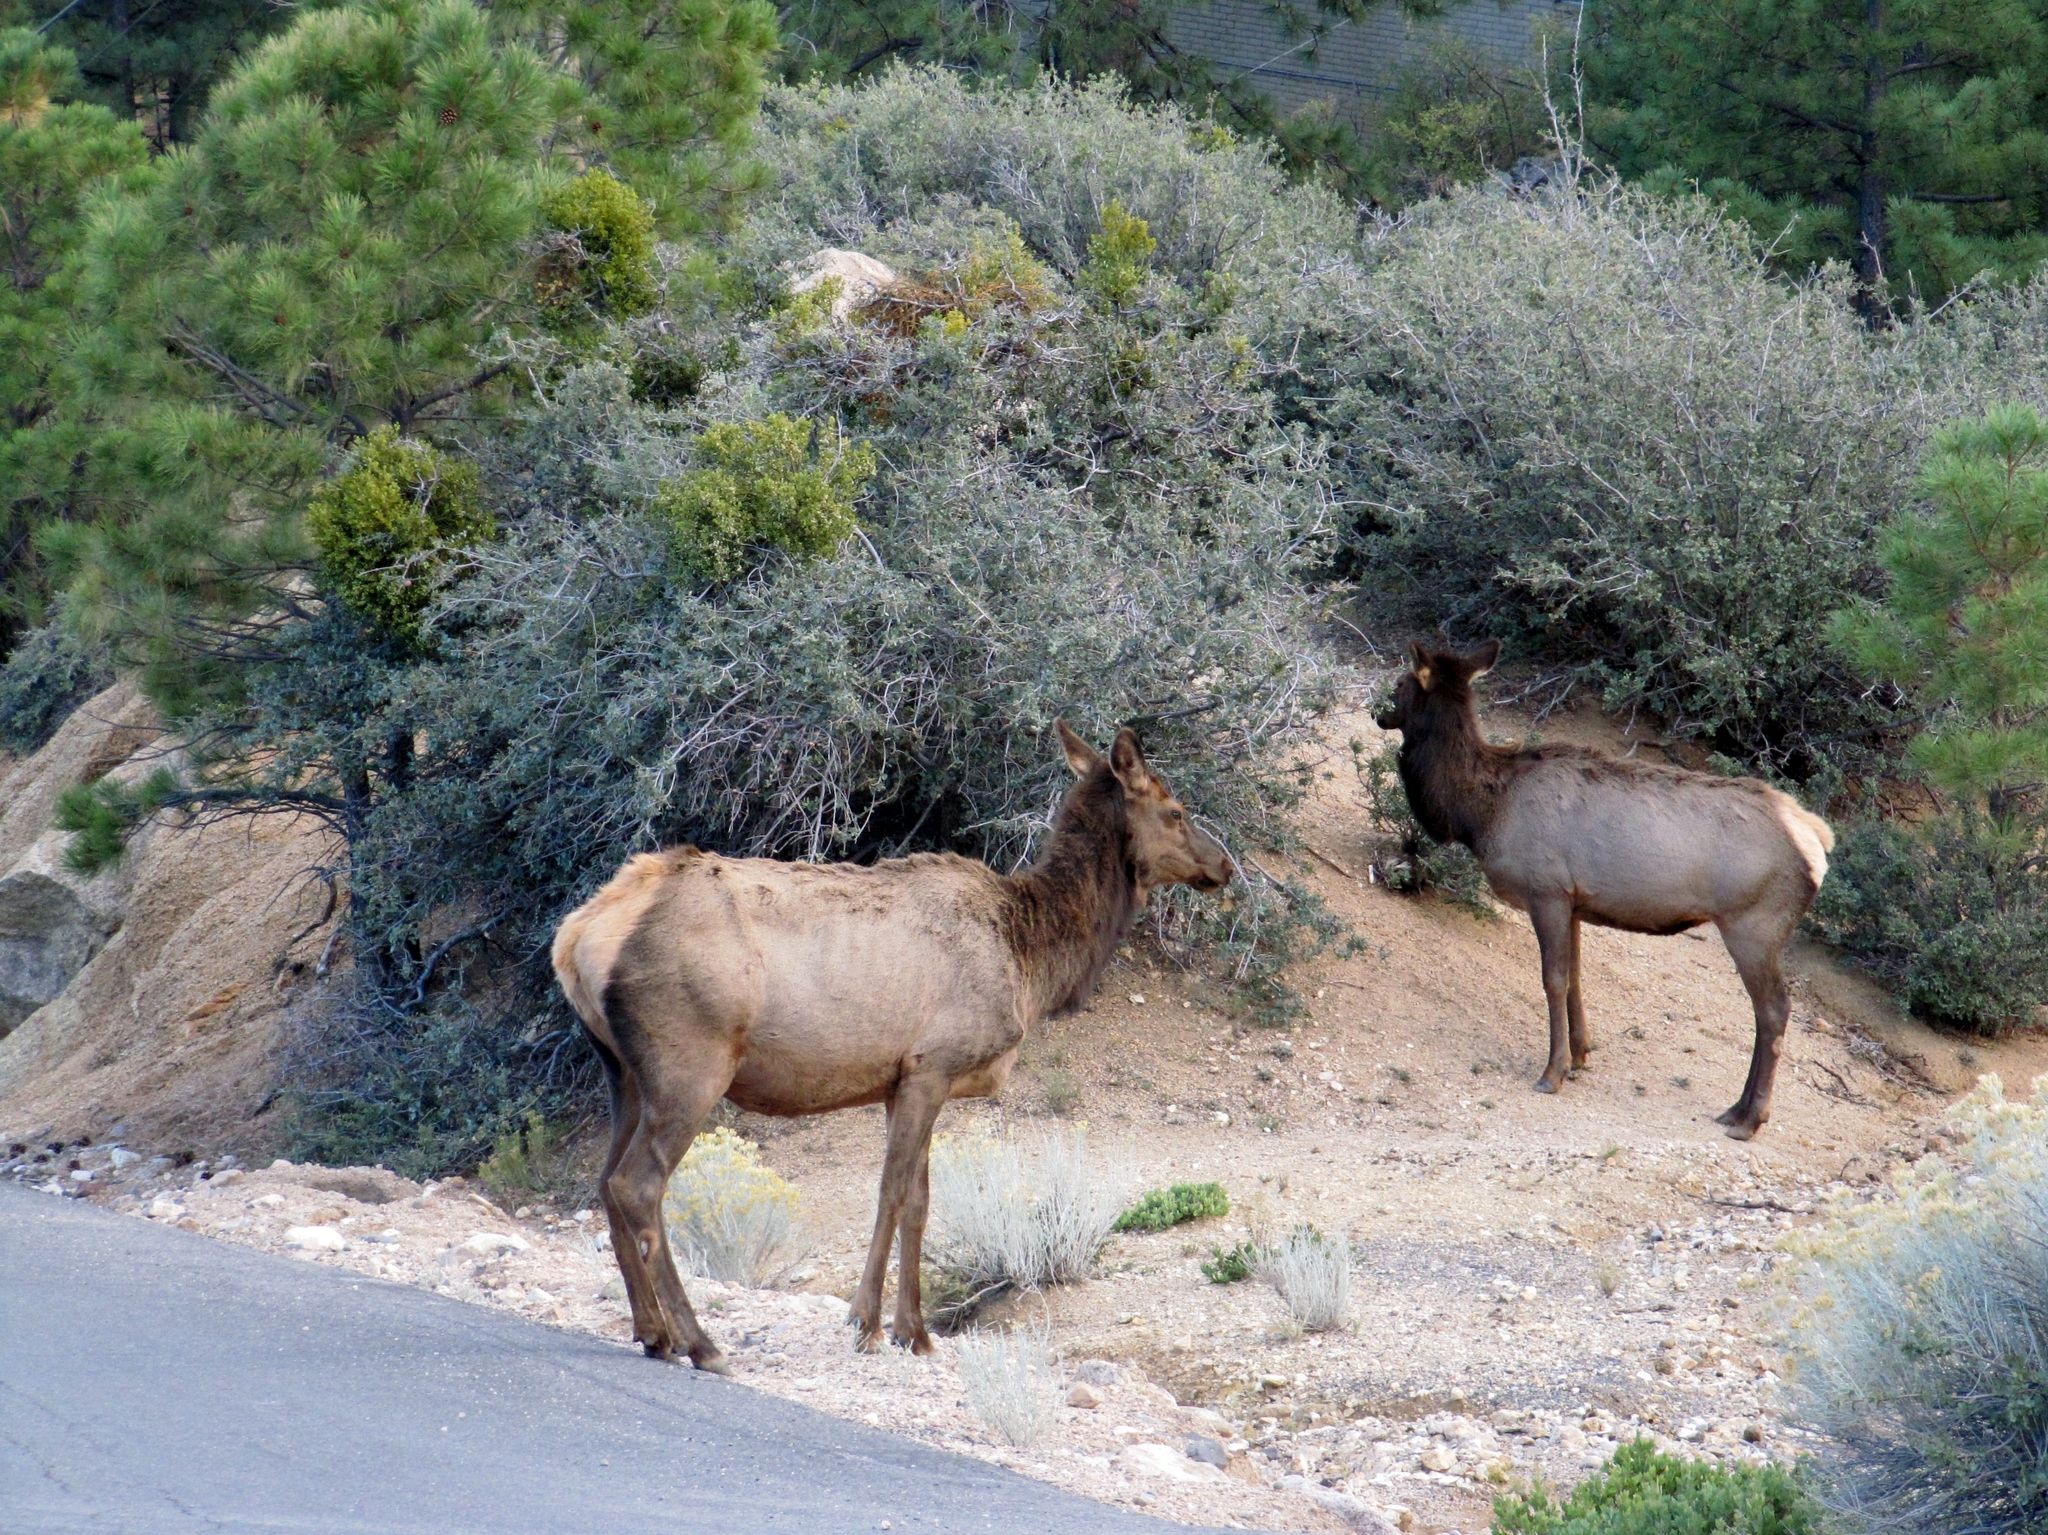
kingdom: Animalia
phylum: Chordata
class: Mammalia
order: Artiodactyla
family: Cervidae
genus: Cervus
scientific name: Cervus elaphus
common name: Red deer
